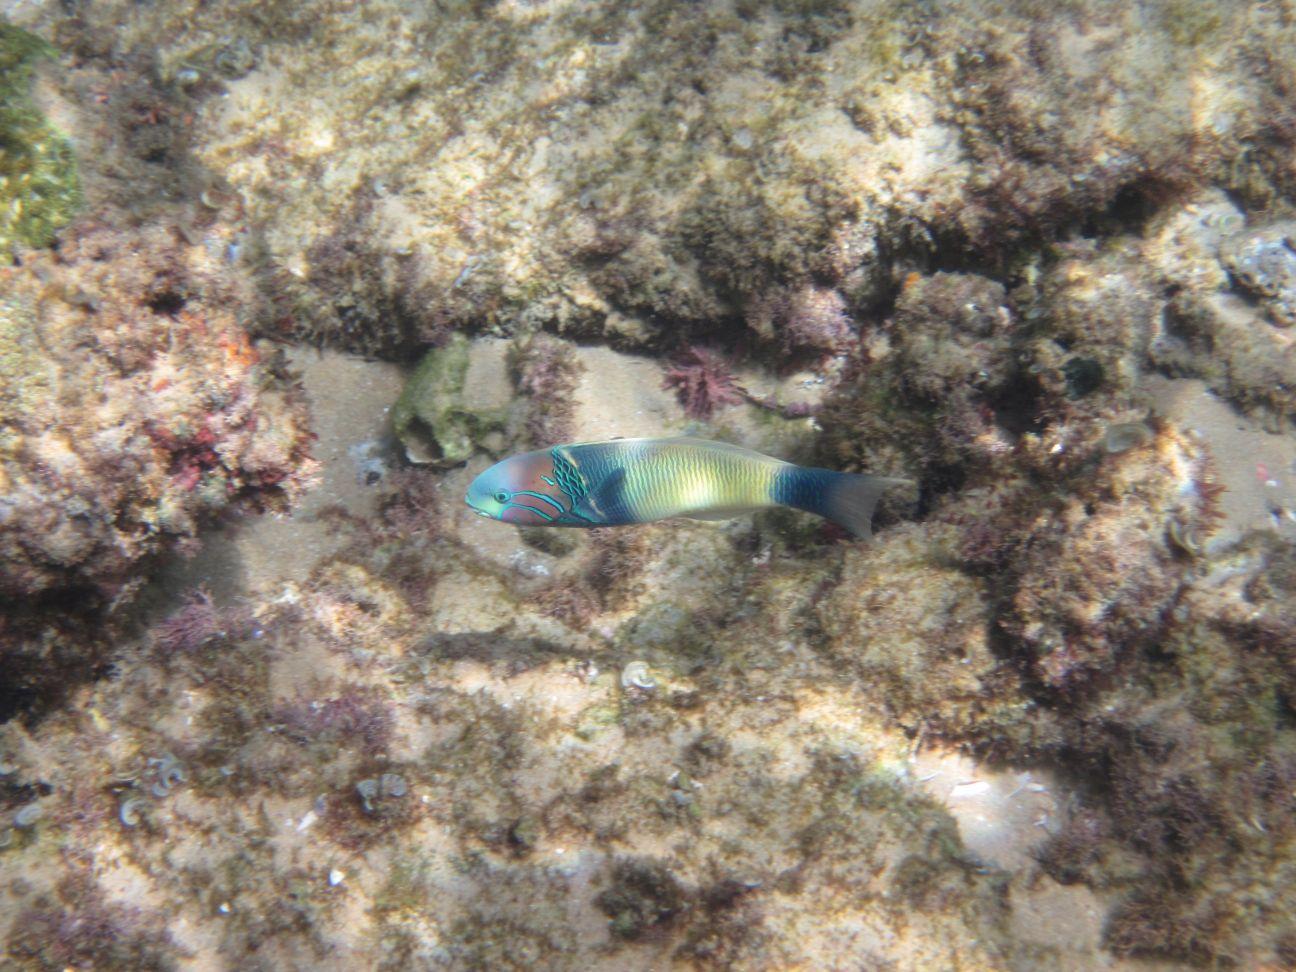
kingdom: Animalia
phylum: Chordata
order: Perciformes
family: Labridae
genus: Thalassoma
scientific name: Thalassoma hebraicum
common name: Goldbar wrasse
